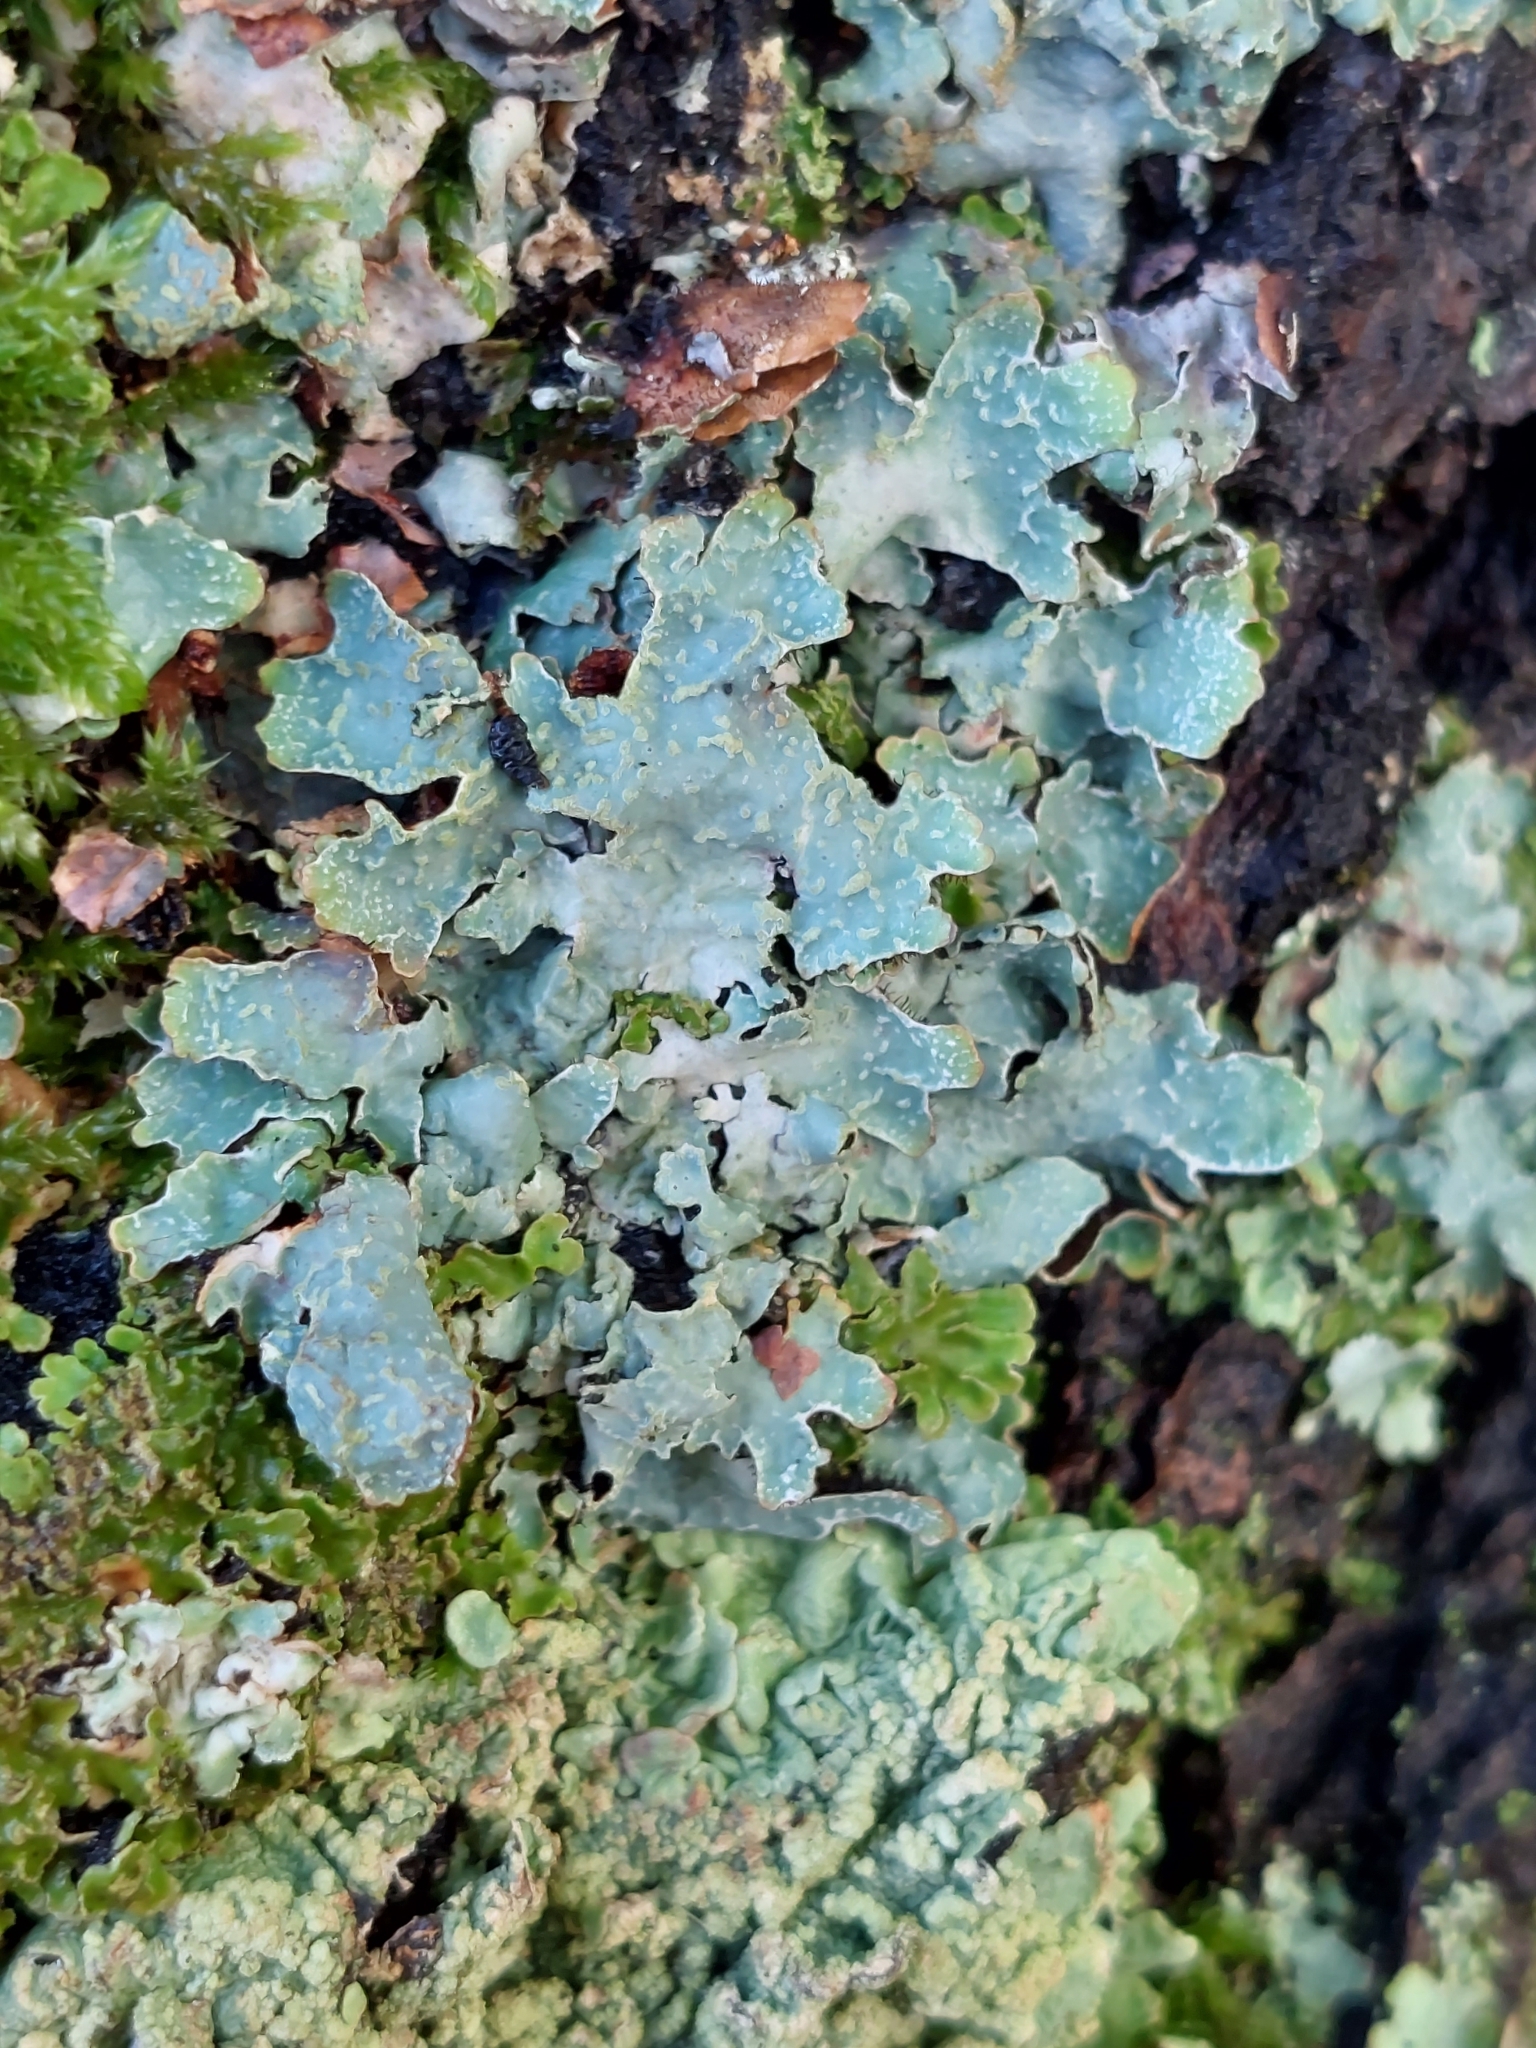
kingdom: Fungi
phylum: Ascomycota
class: Lecanoromycetes
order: Lecanorales
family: Parmeliaceae
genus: Parmelia
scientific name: Parmelia sulcata
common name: Netted shield lichen
